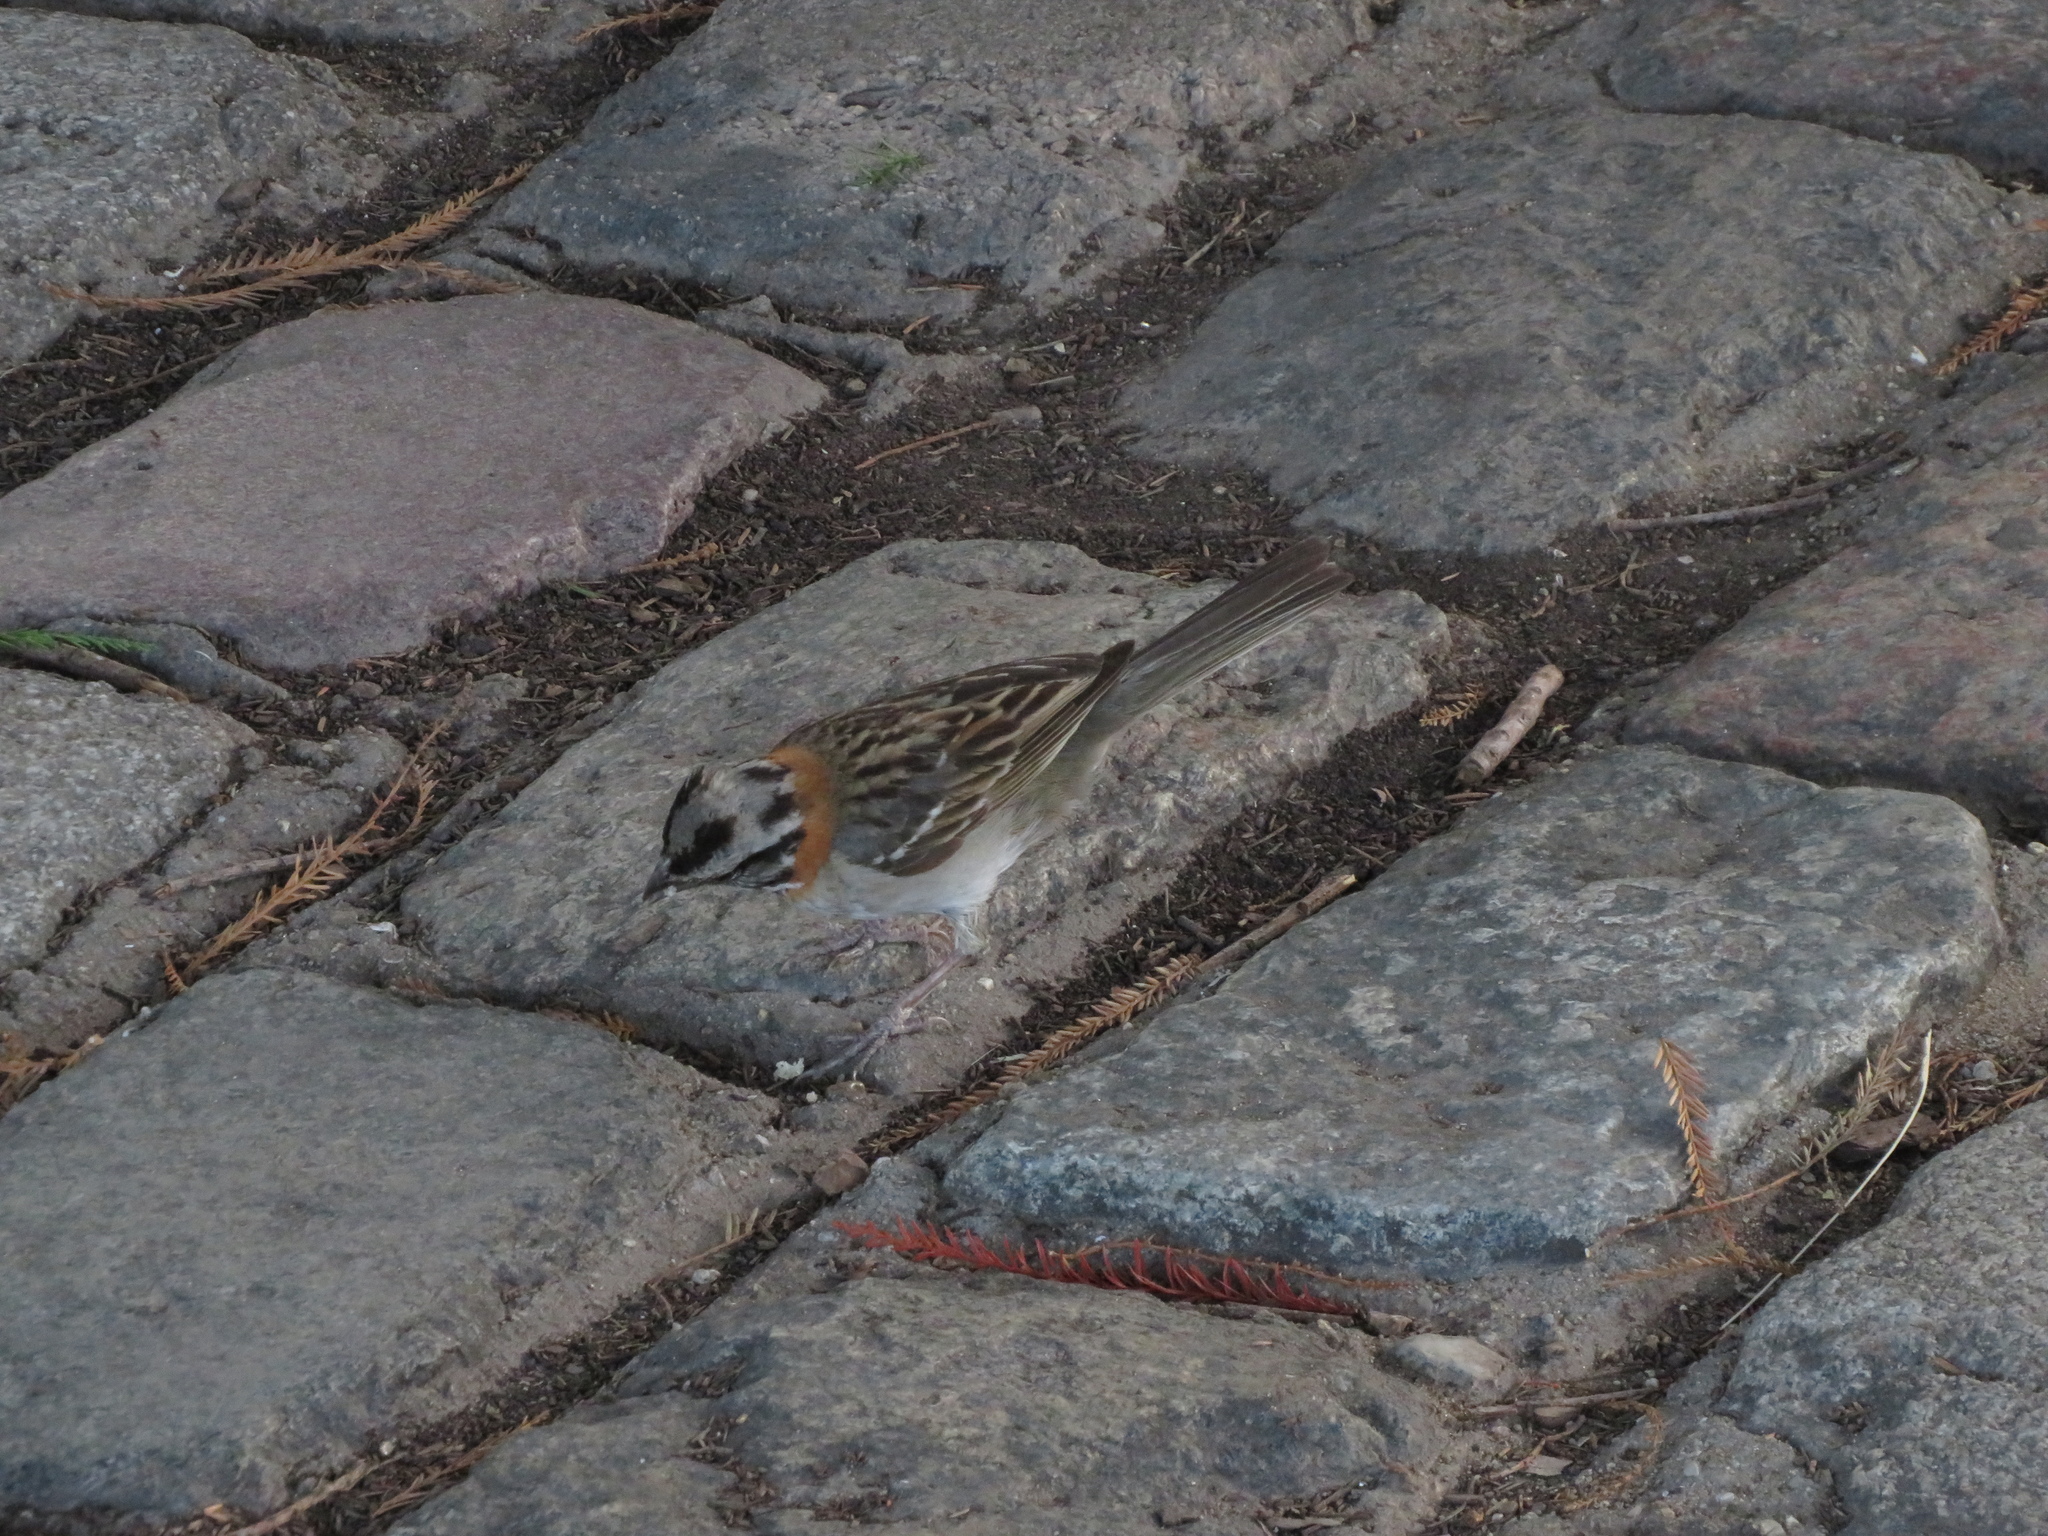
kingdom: Animalia
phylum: Chordata
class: Aves
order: Passeriformes
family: Passerellidae
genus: Zonotrichia
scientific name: Zonotrichia capensis
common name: Rufous-collared sparrow
